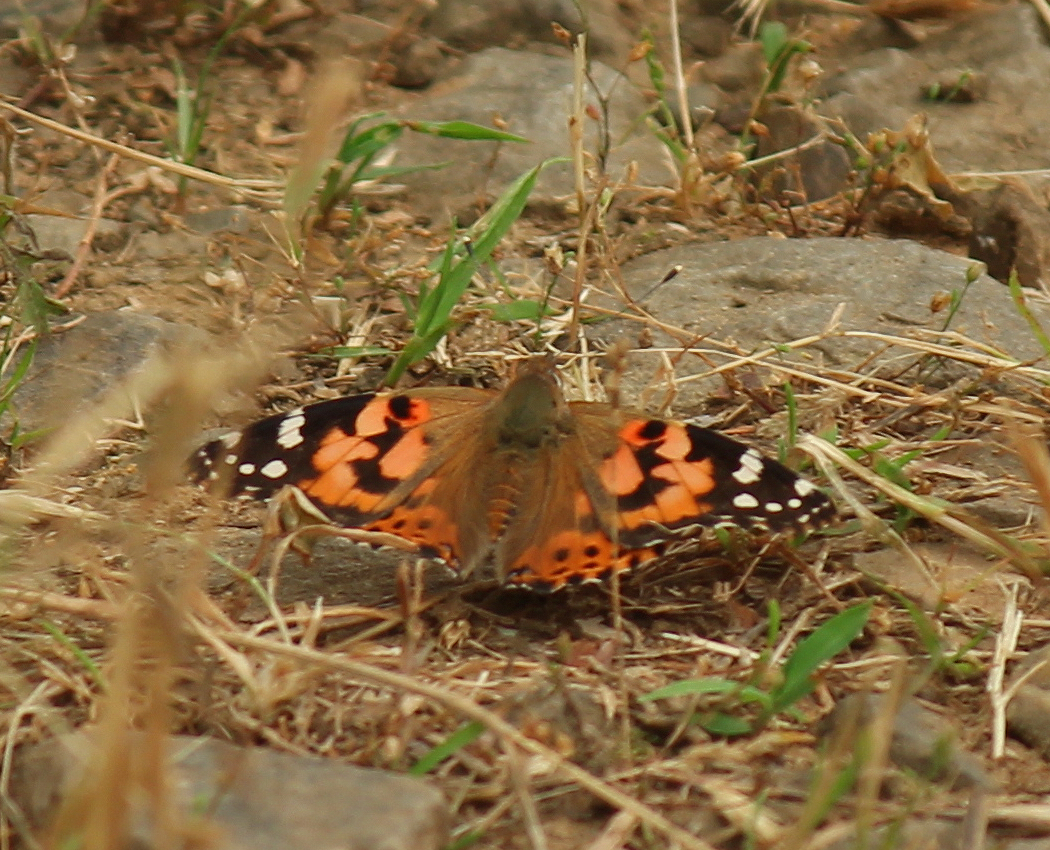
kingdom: Animalia
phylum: Arthropoda
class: Insecta
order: Lepidoptera
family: Nymphalidae
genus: Vanessa
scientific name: Vanessa cardui
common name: Painted lady
